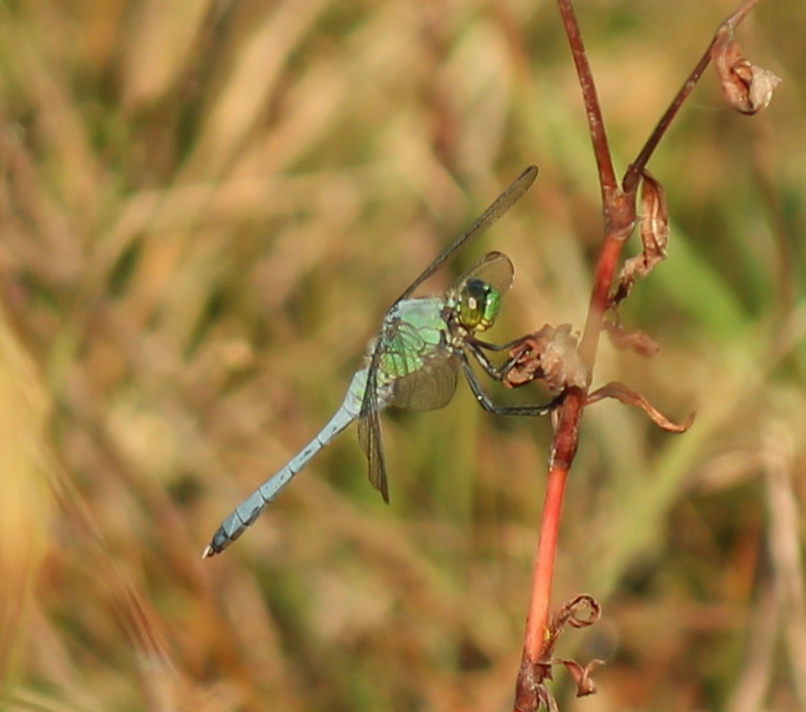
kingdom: Animalia
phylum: Arthropoda
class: Insecta
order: Odonata
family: Libellulidae
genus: Erythemis
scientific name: Erythemis simplicicollis
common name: Eastern pondhawk
